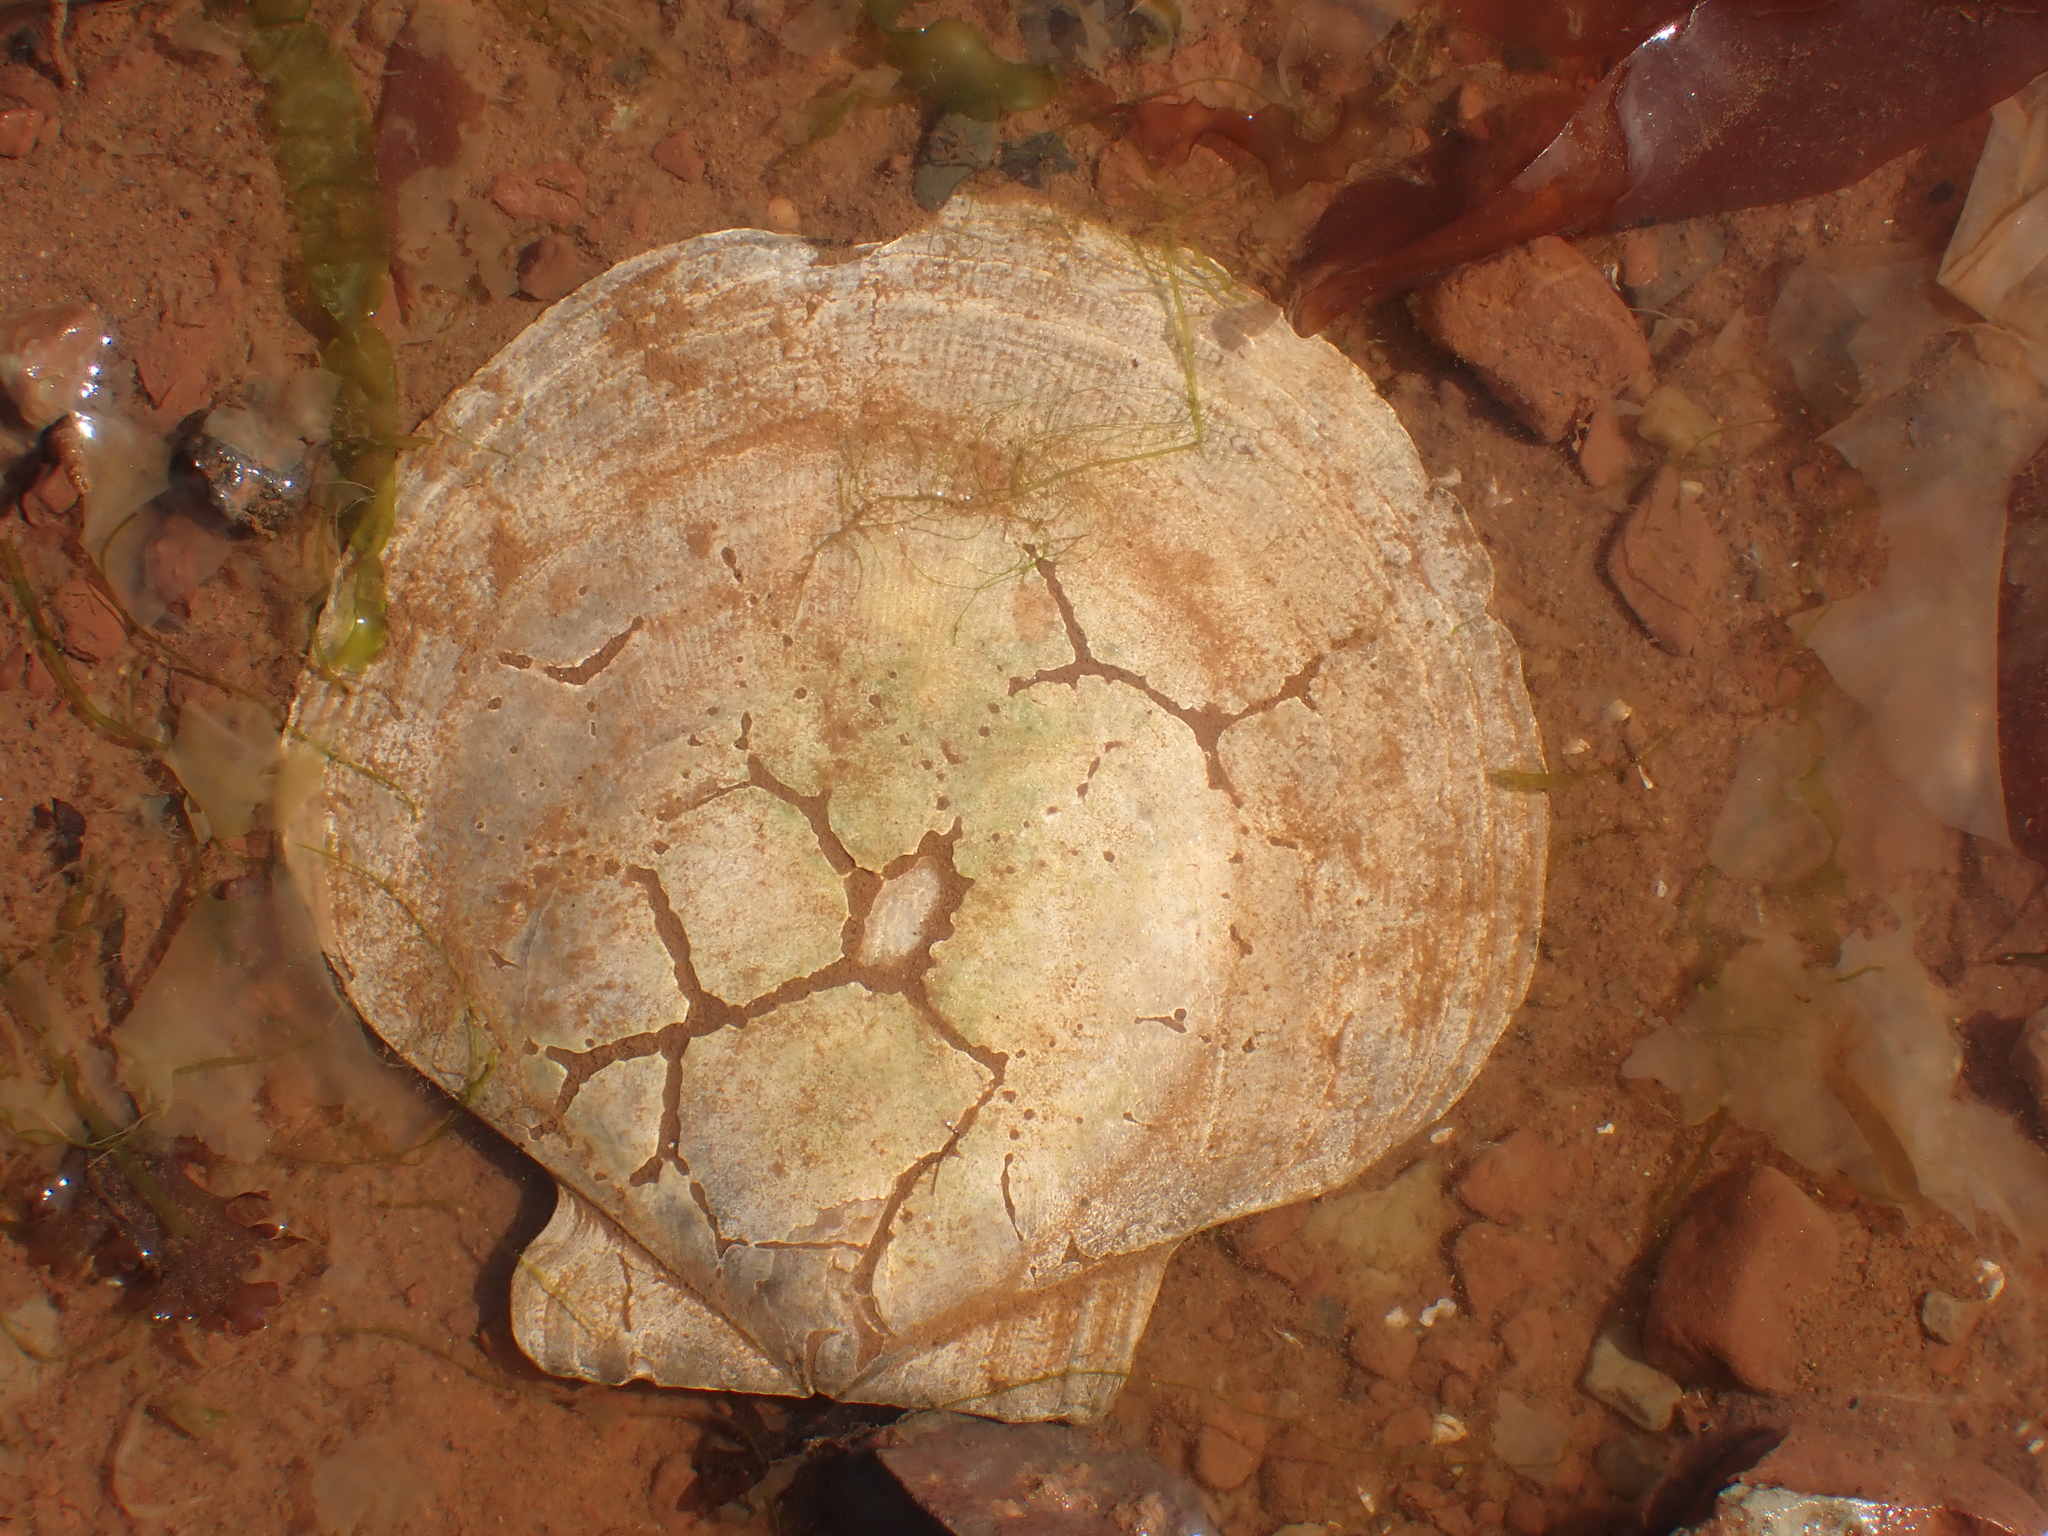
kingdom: Animalia
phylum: Mollusca
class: Bivalvia
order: Pectinida
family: Pectinidae
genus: Placopecten
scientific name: Placopecten magellanicus
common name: American sea scallop
